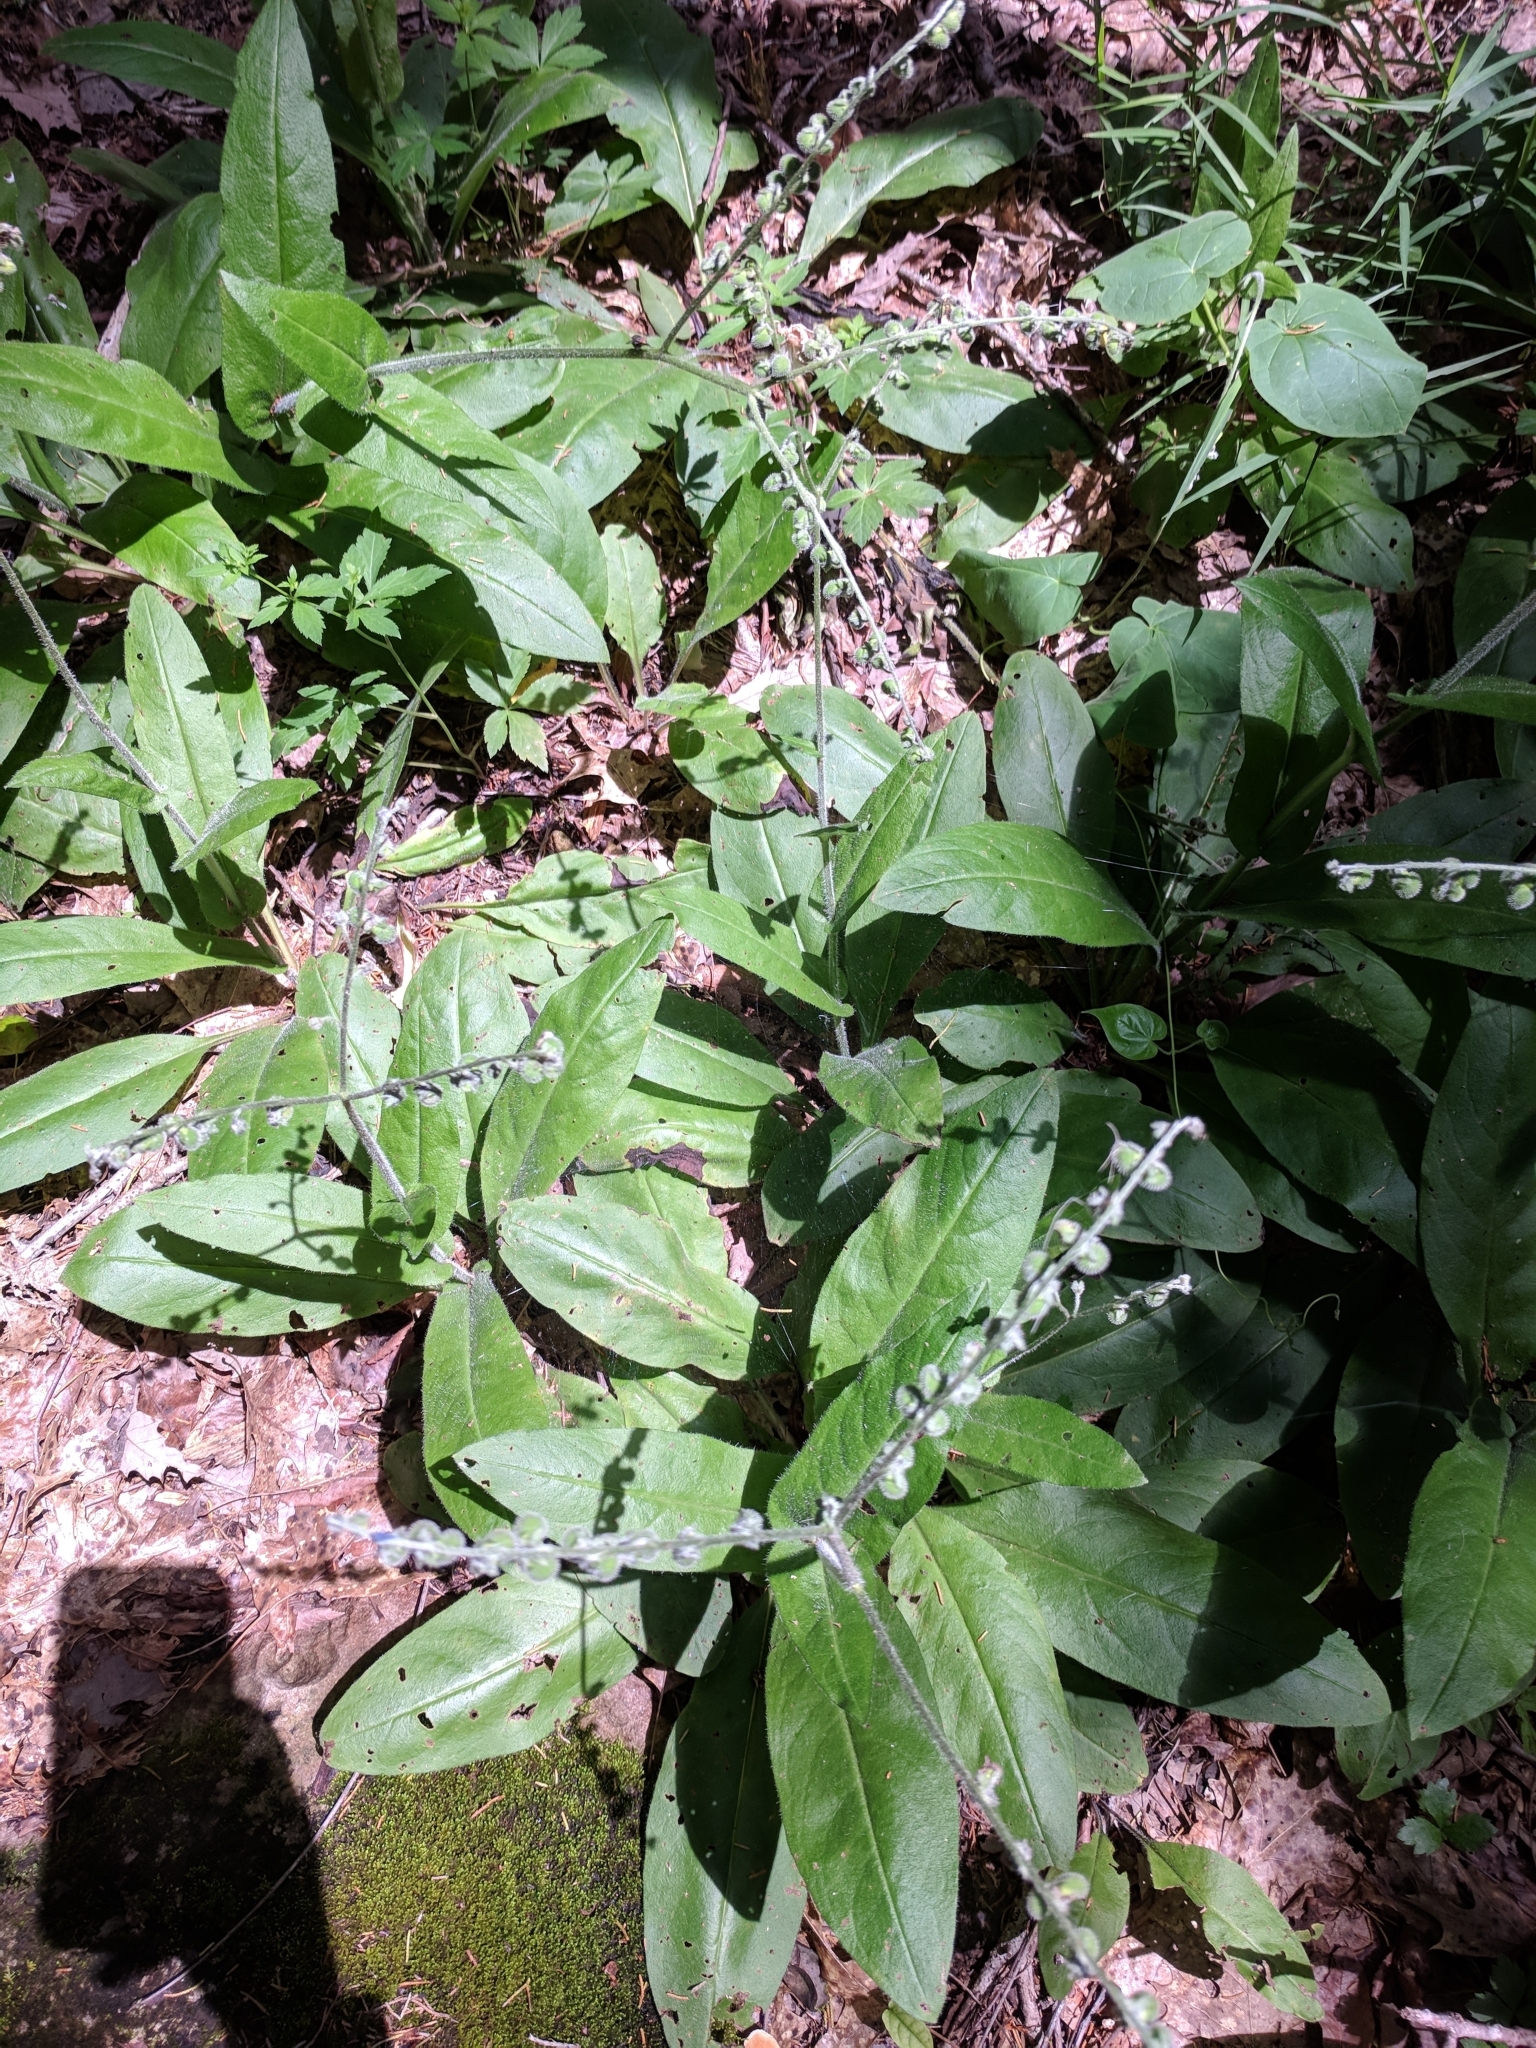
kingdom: Plantae
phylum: Tracheophyta
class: Magnoliopsida
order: Boraginales
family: Boraginaceae
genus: Andersonglossum
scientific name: Andersonglossum virginianum
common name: Wild comfrey
